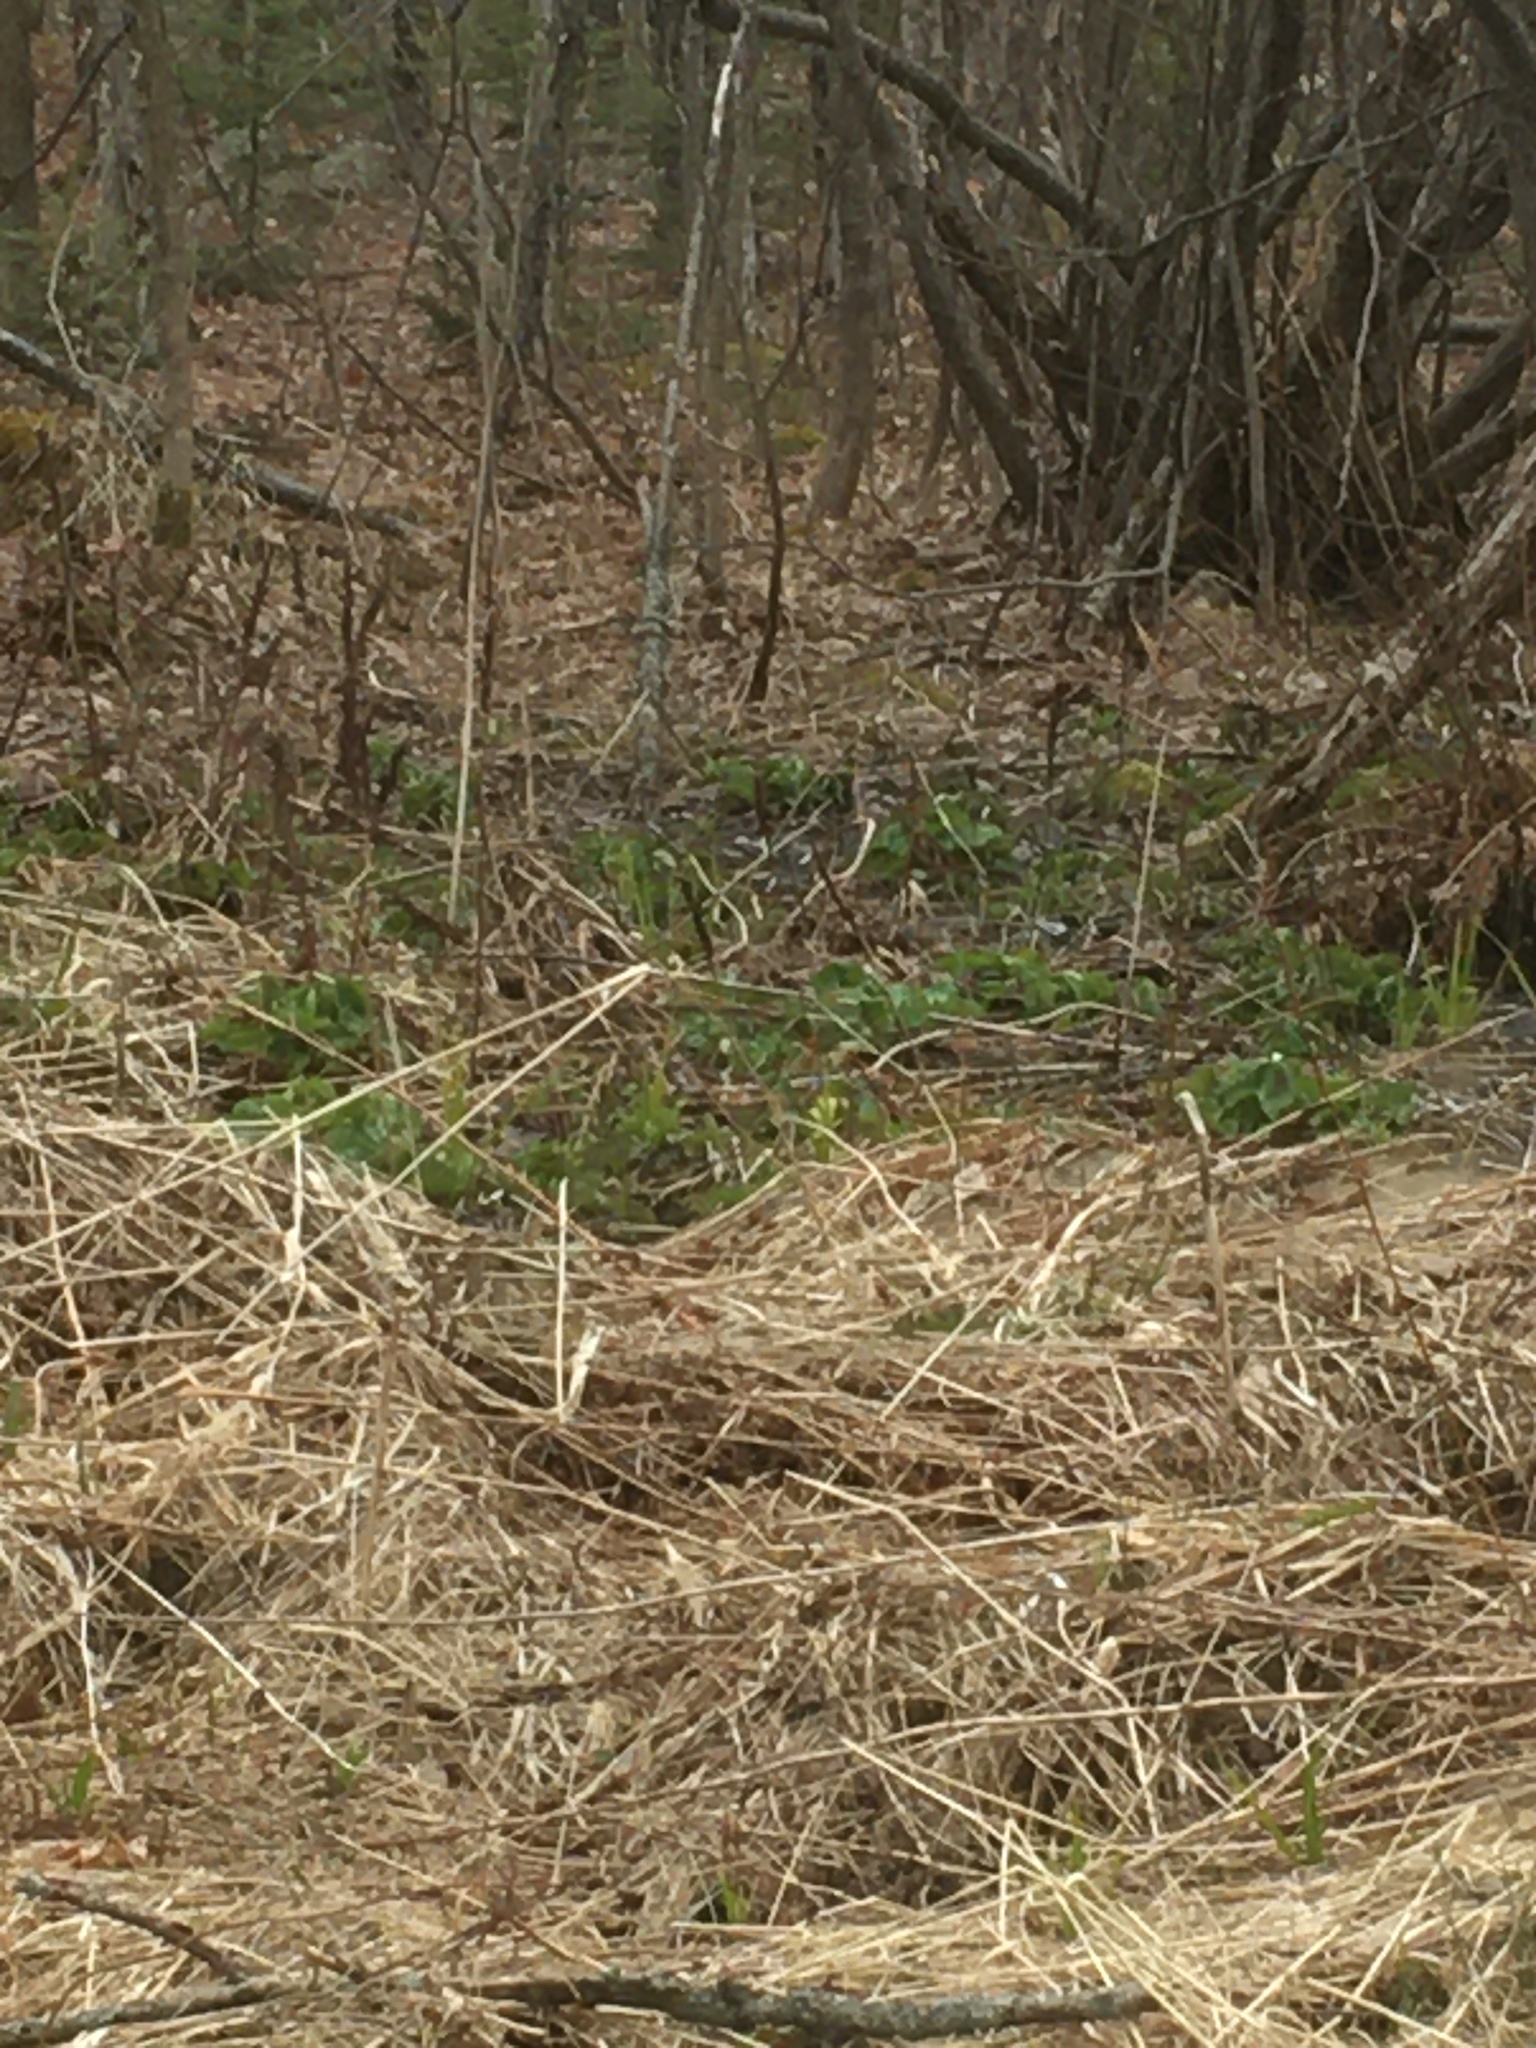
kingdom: Plantae
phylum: Tracheophyta
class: Magnoliopsida
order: Ranunculales
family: Ranunculaceae
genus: Caltha
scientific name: Caltha palustris
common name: Marsh marigold
